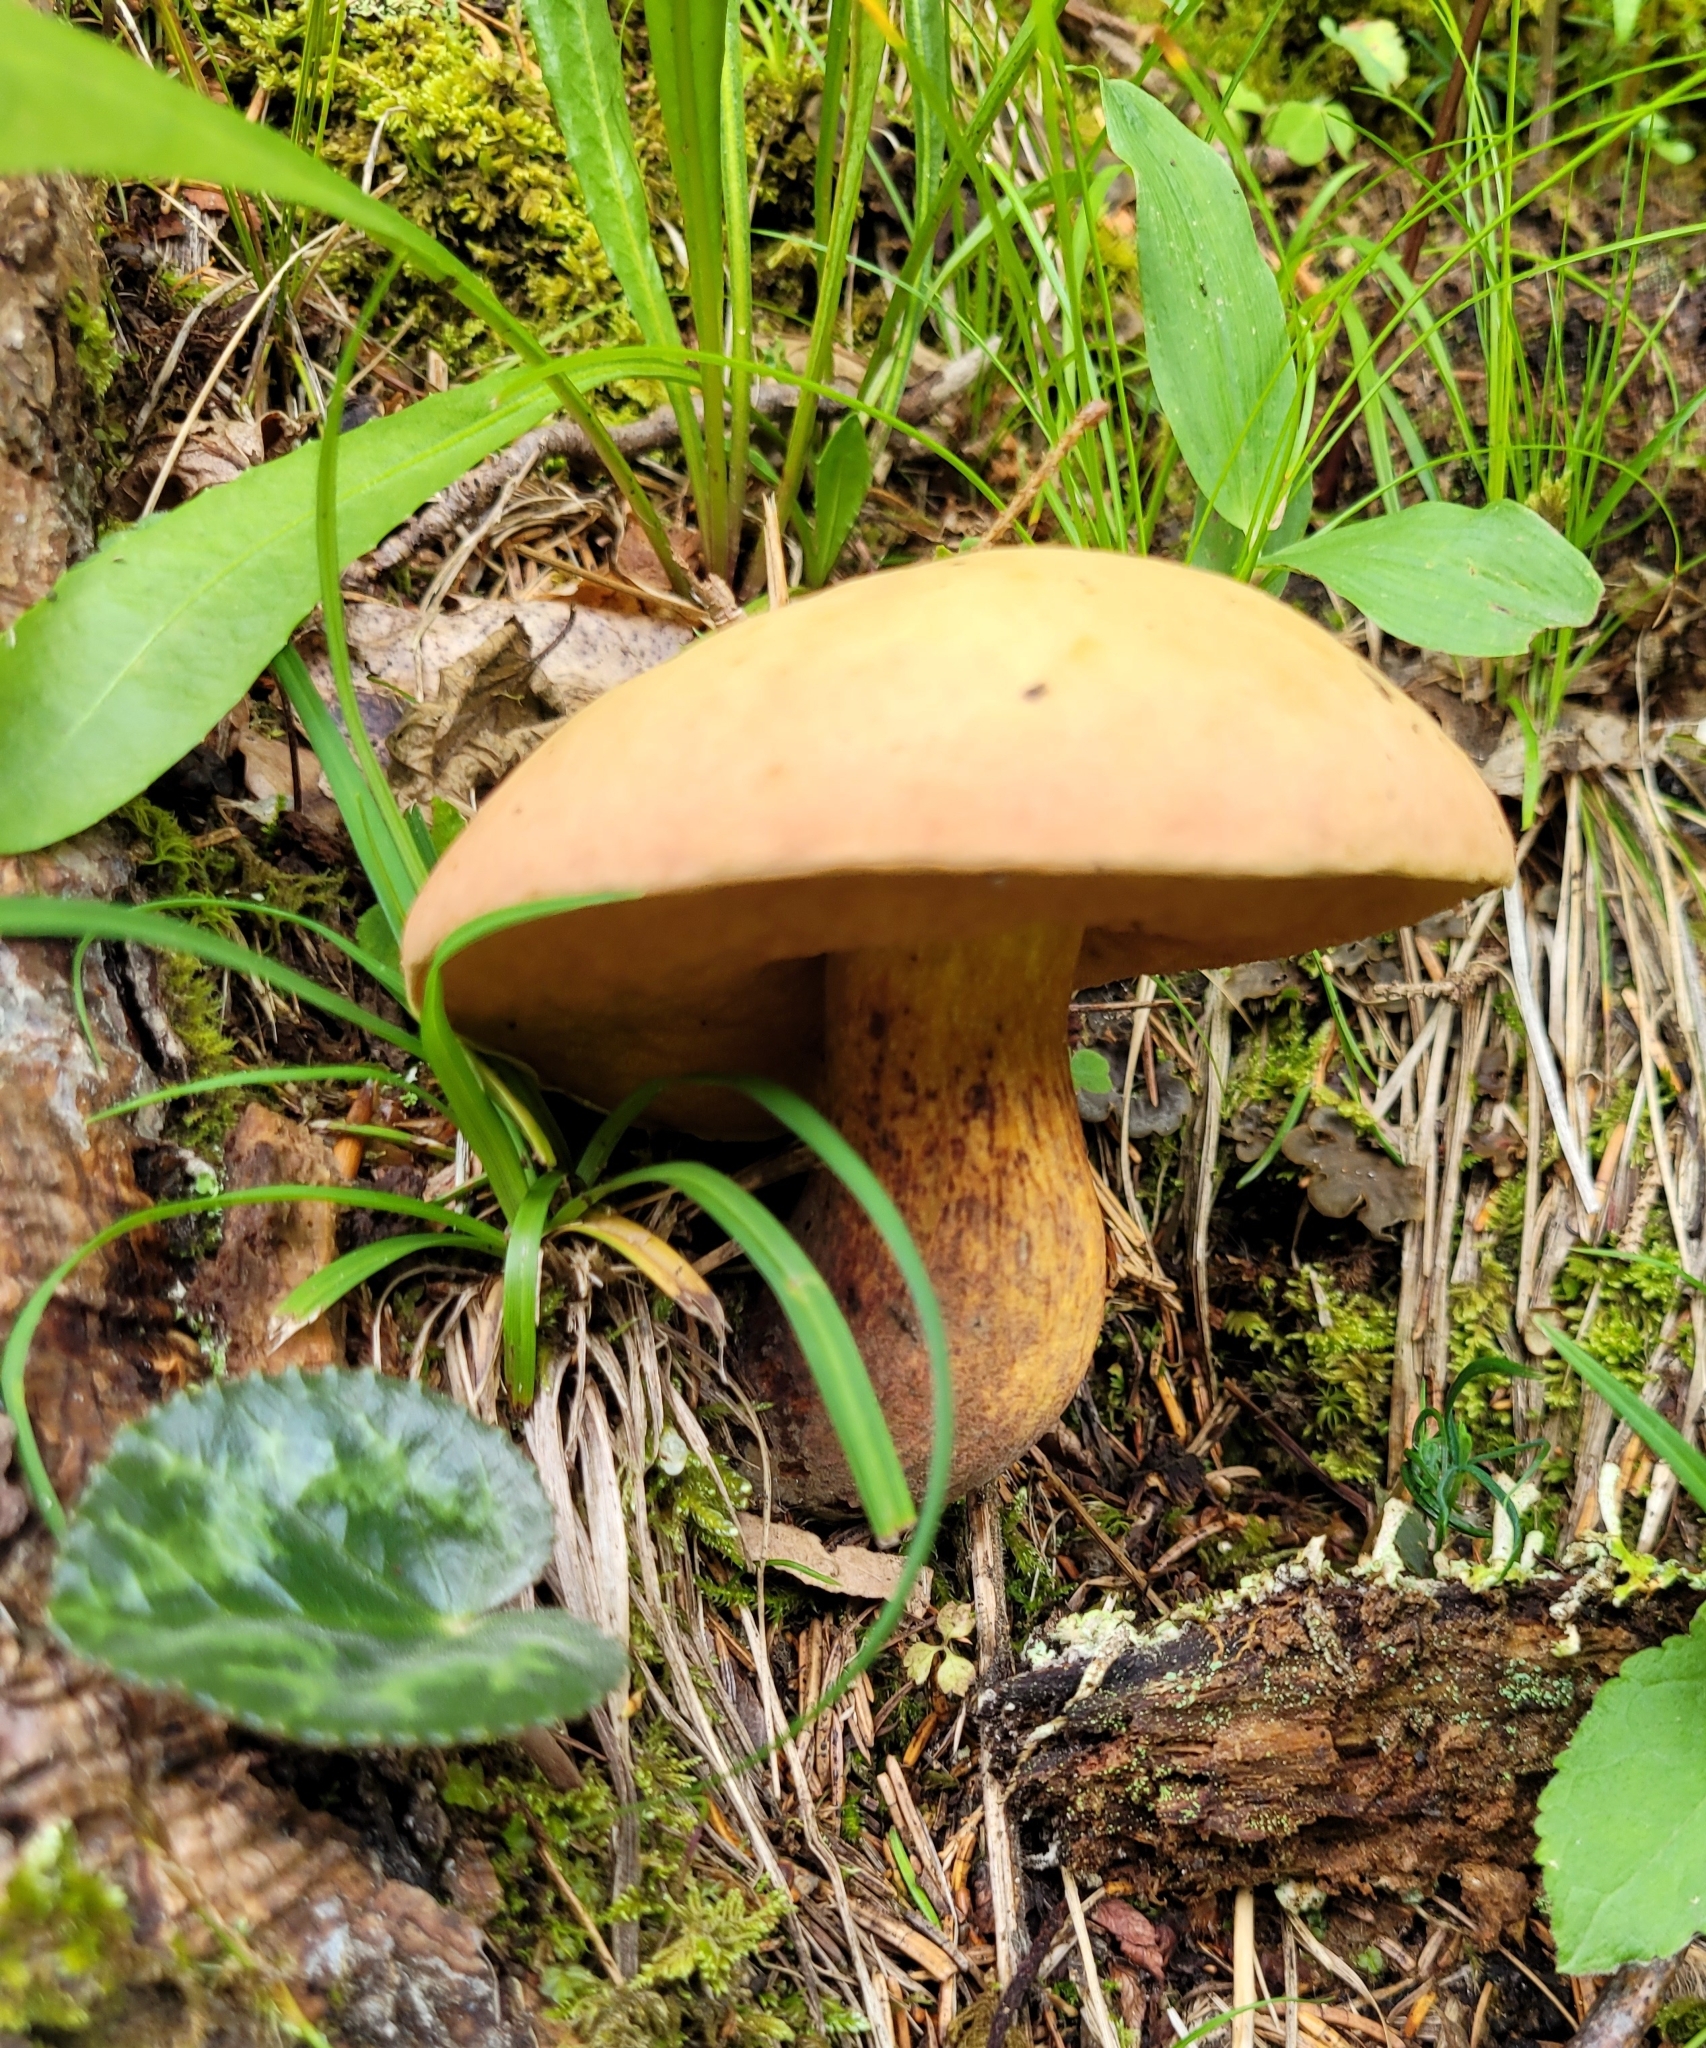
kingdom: Fungi
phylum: Basidiomycota
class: Agaricomycetes
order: Boletales
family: Boletaceae
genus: Suillellus
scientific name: Suillellus luridus
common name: Lurid bolete
